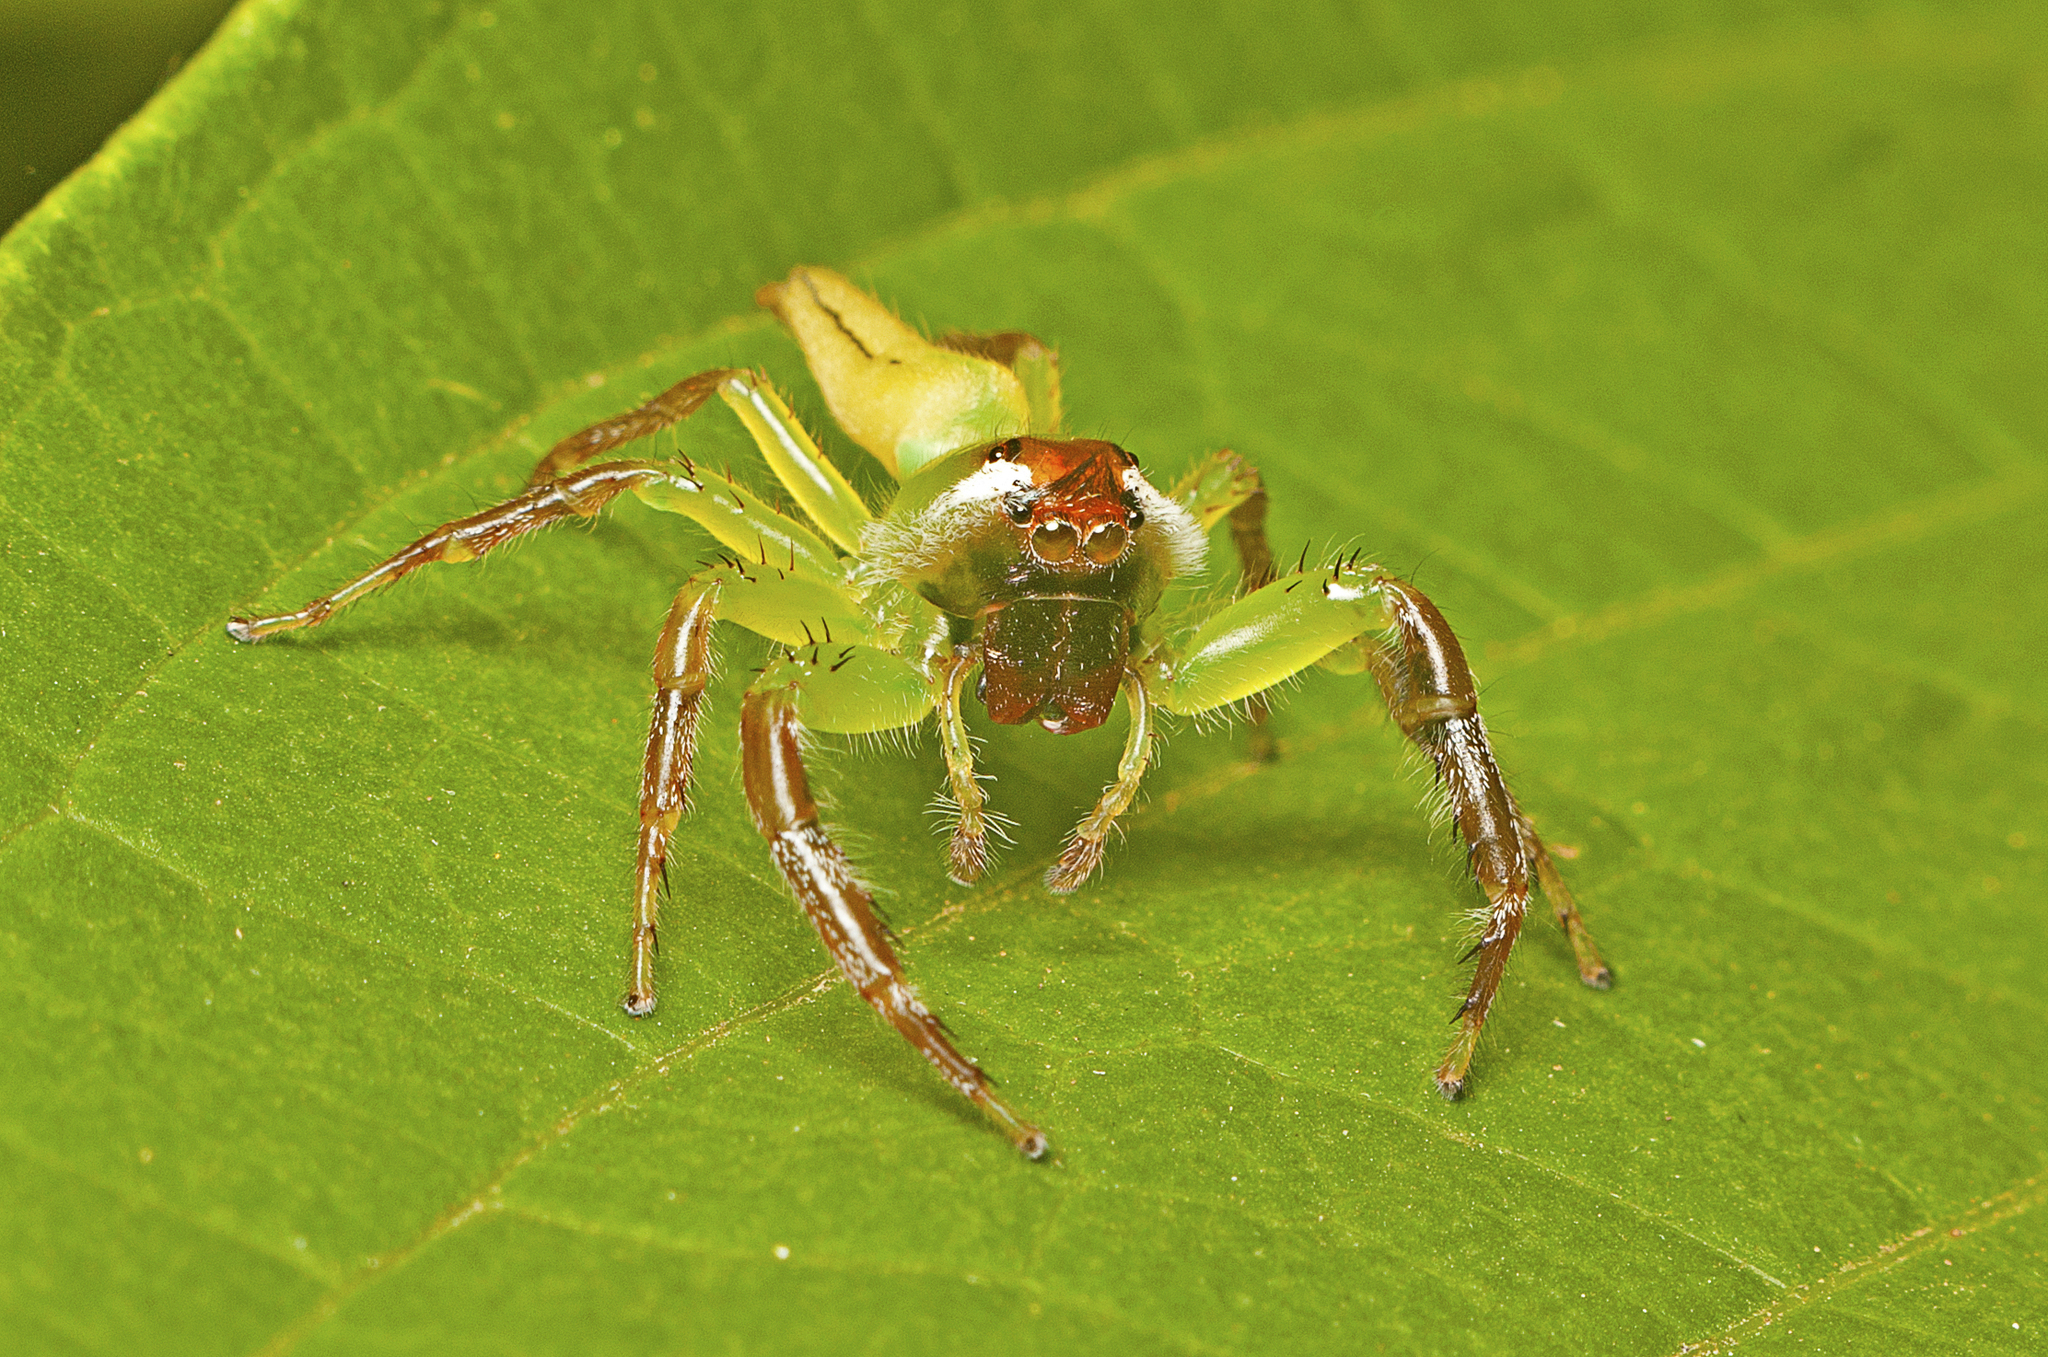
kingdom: Animalia
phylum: Arthropoda
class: Arachnida
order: Araneae
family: Salticidae
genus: Mopsus
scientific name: Mopsus mormon
